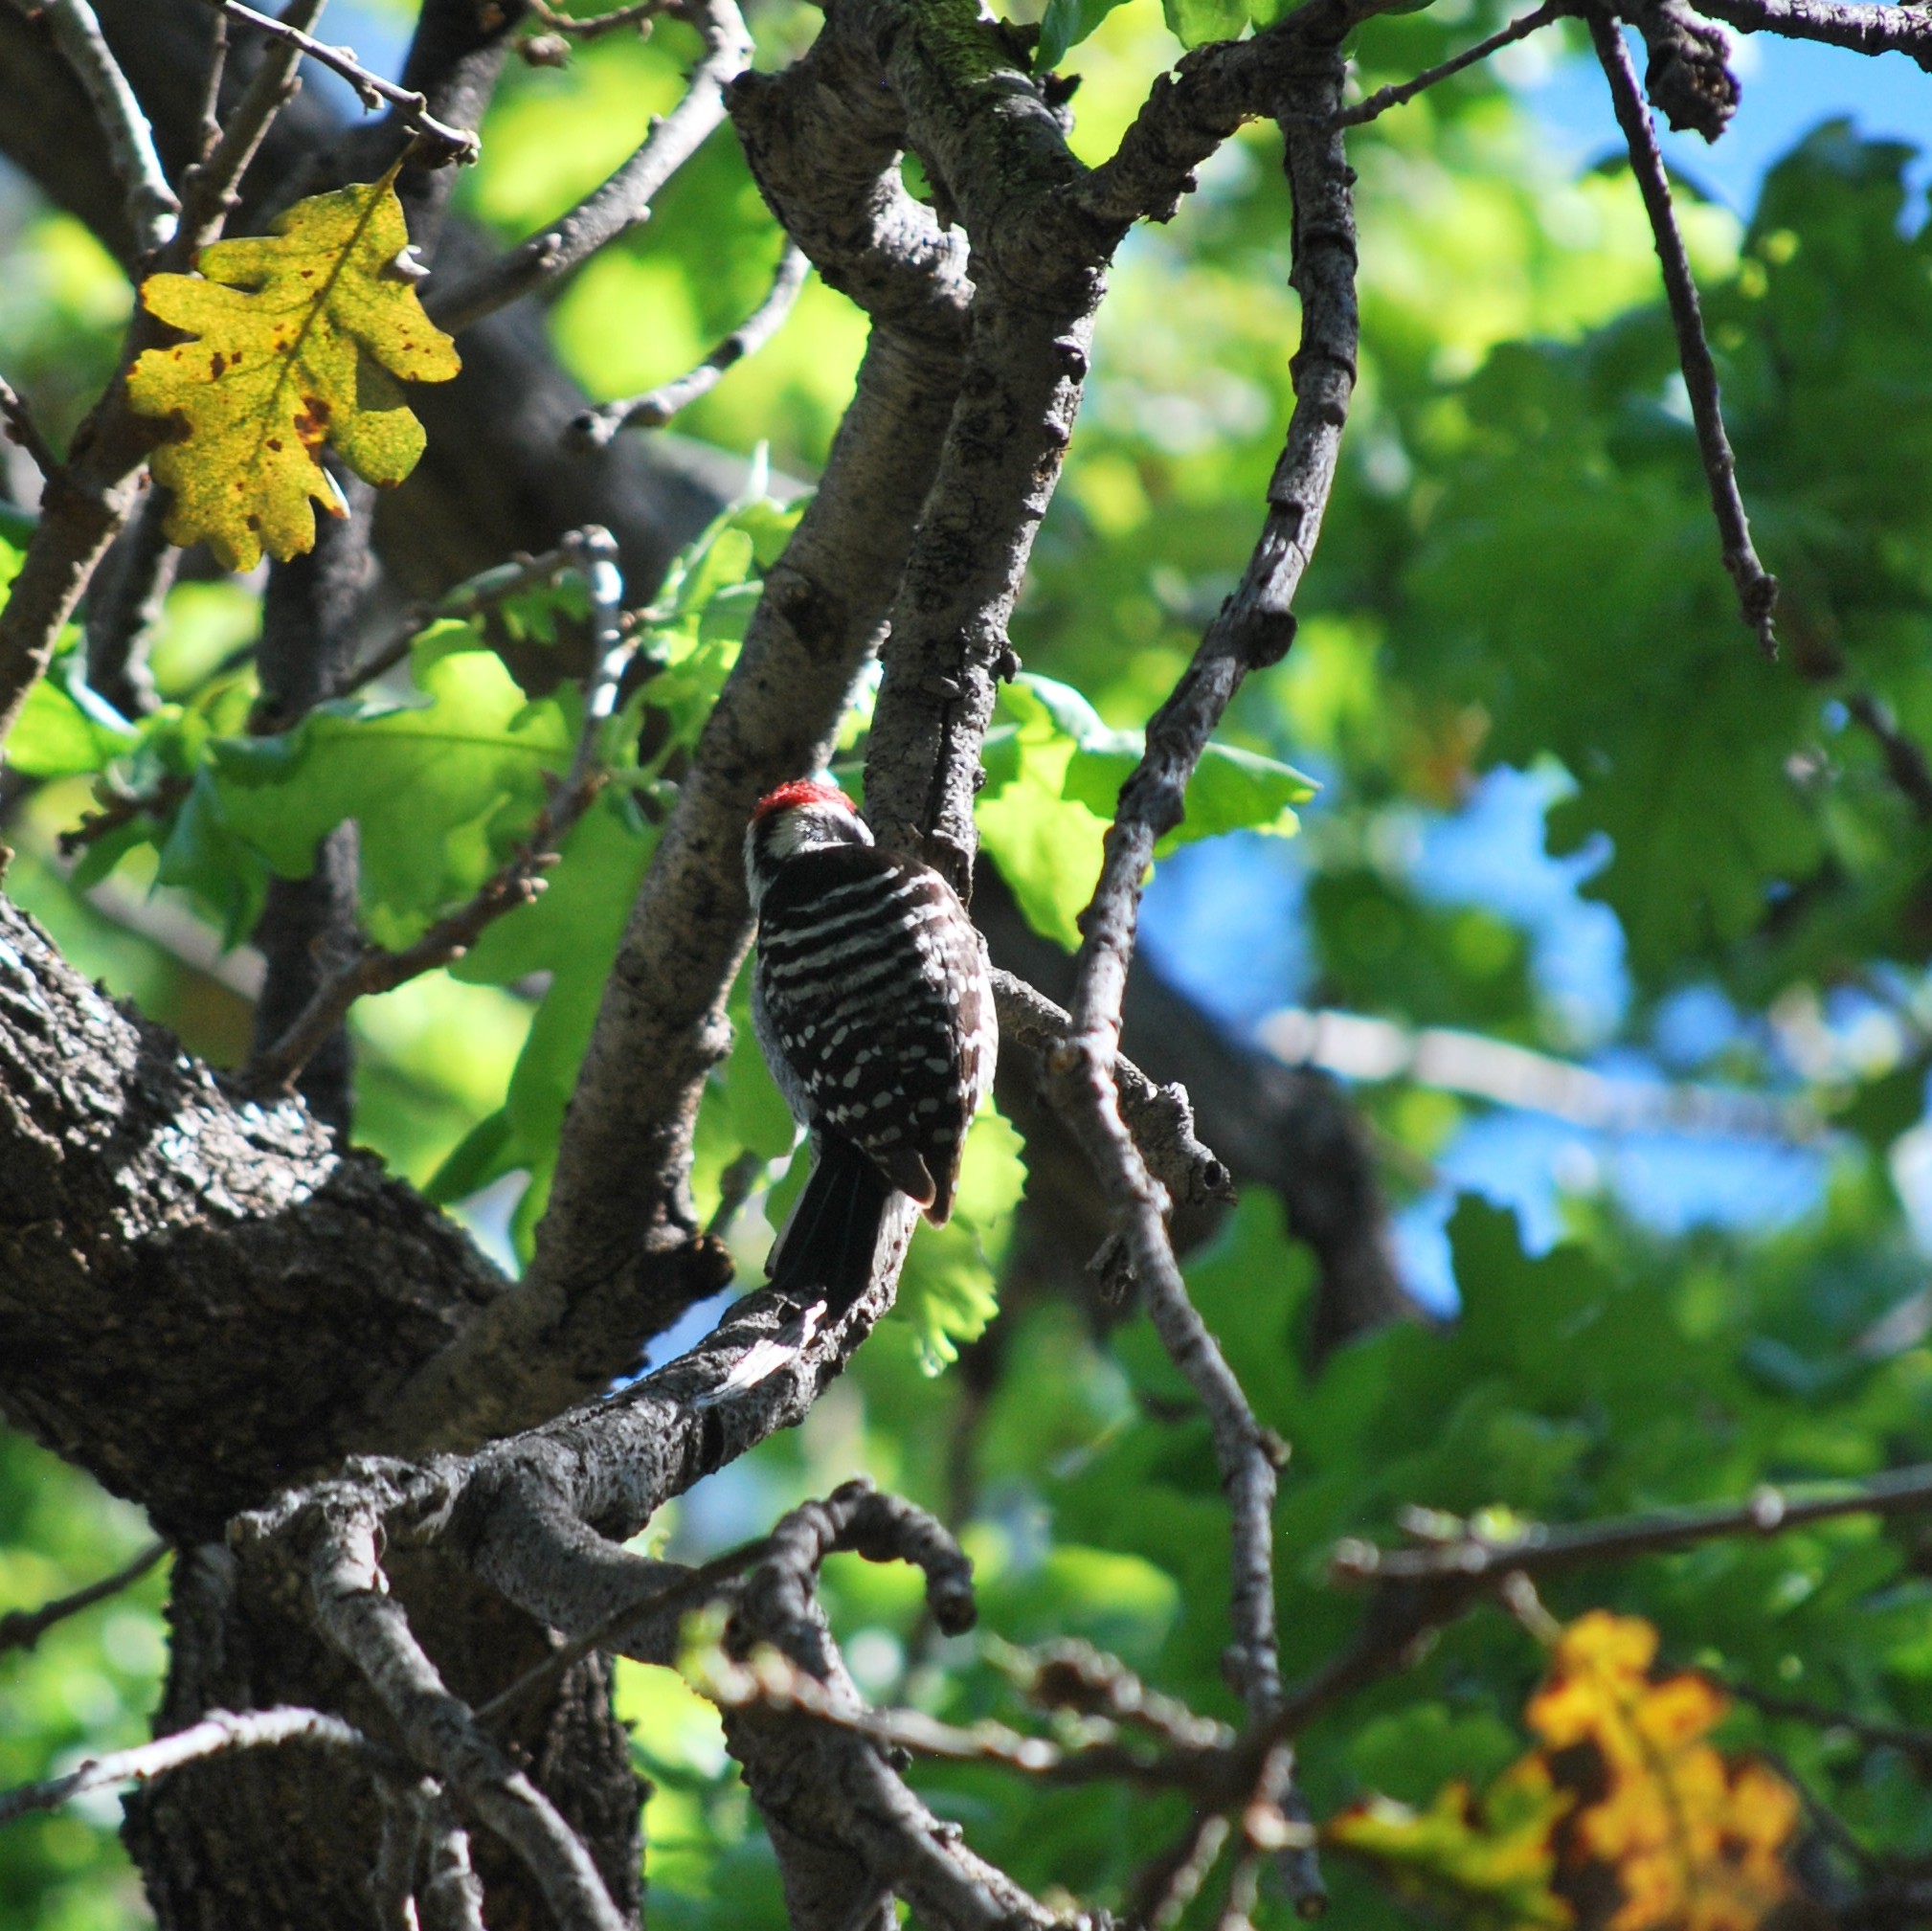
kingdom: Animalia
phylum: Chordata
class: Aves
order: Piciformes
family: Picidae
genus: Dryobates
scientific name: Dryobates nuttallii
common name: Nuttall's woodpecker
